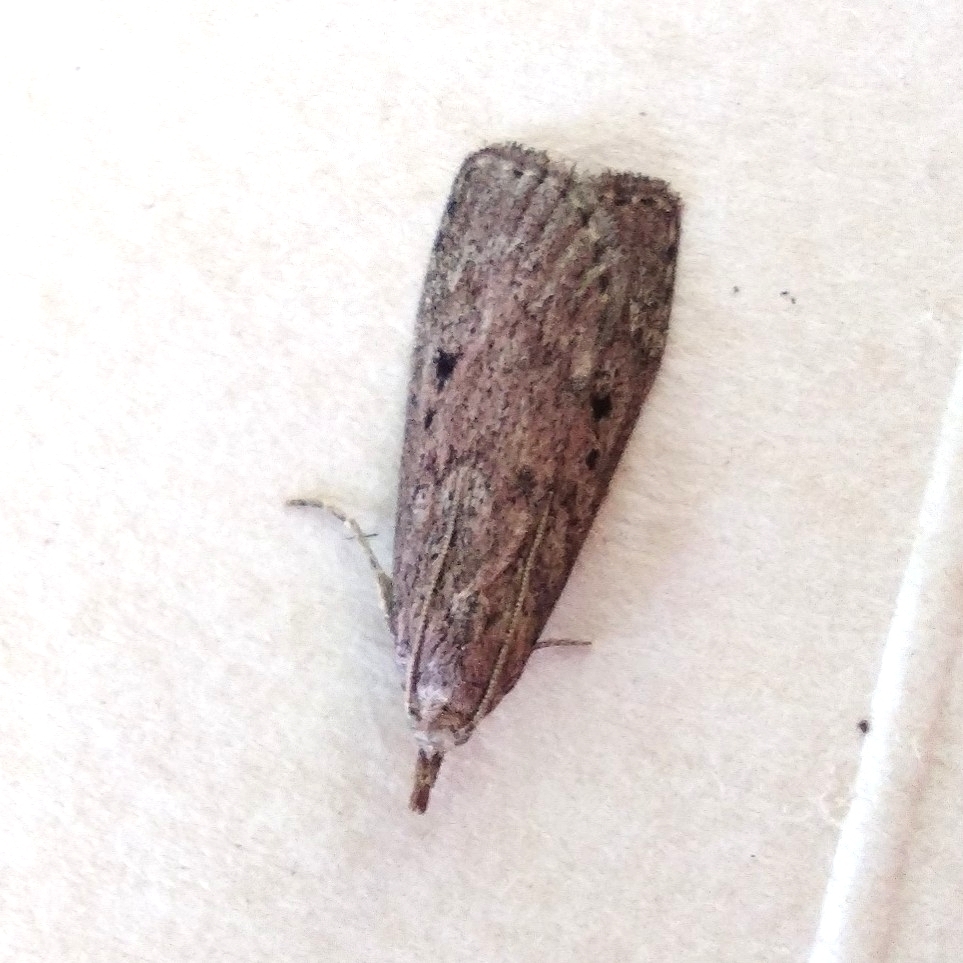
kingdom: Animalia
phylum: Arthropoda
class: Insecta
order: Lepidoptera
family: Pyralidae
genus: Aphomia
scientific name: Aphomia sociella
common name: Bee moth
